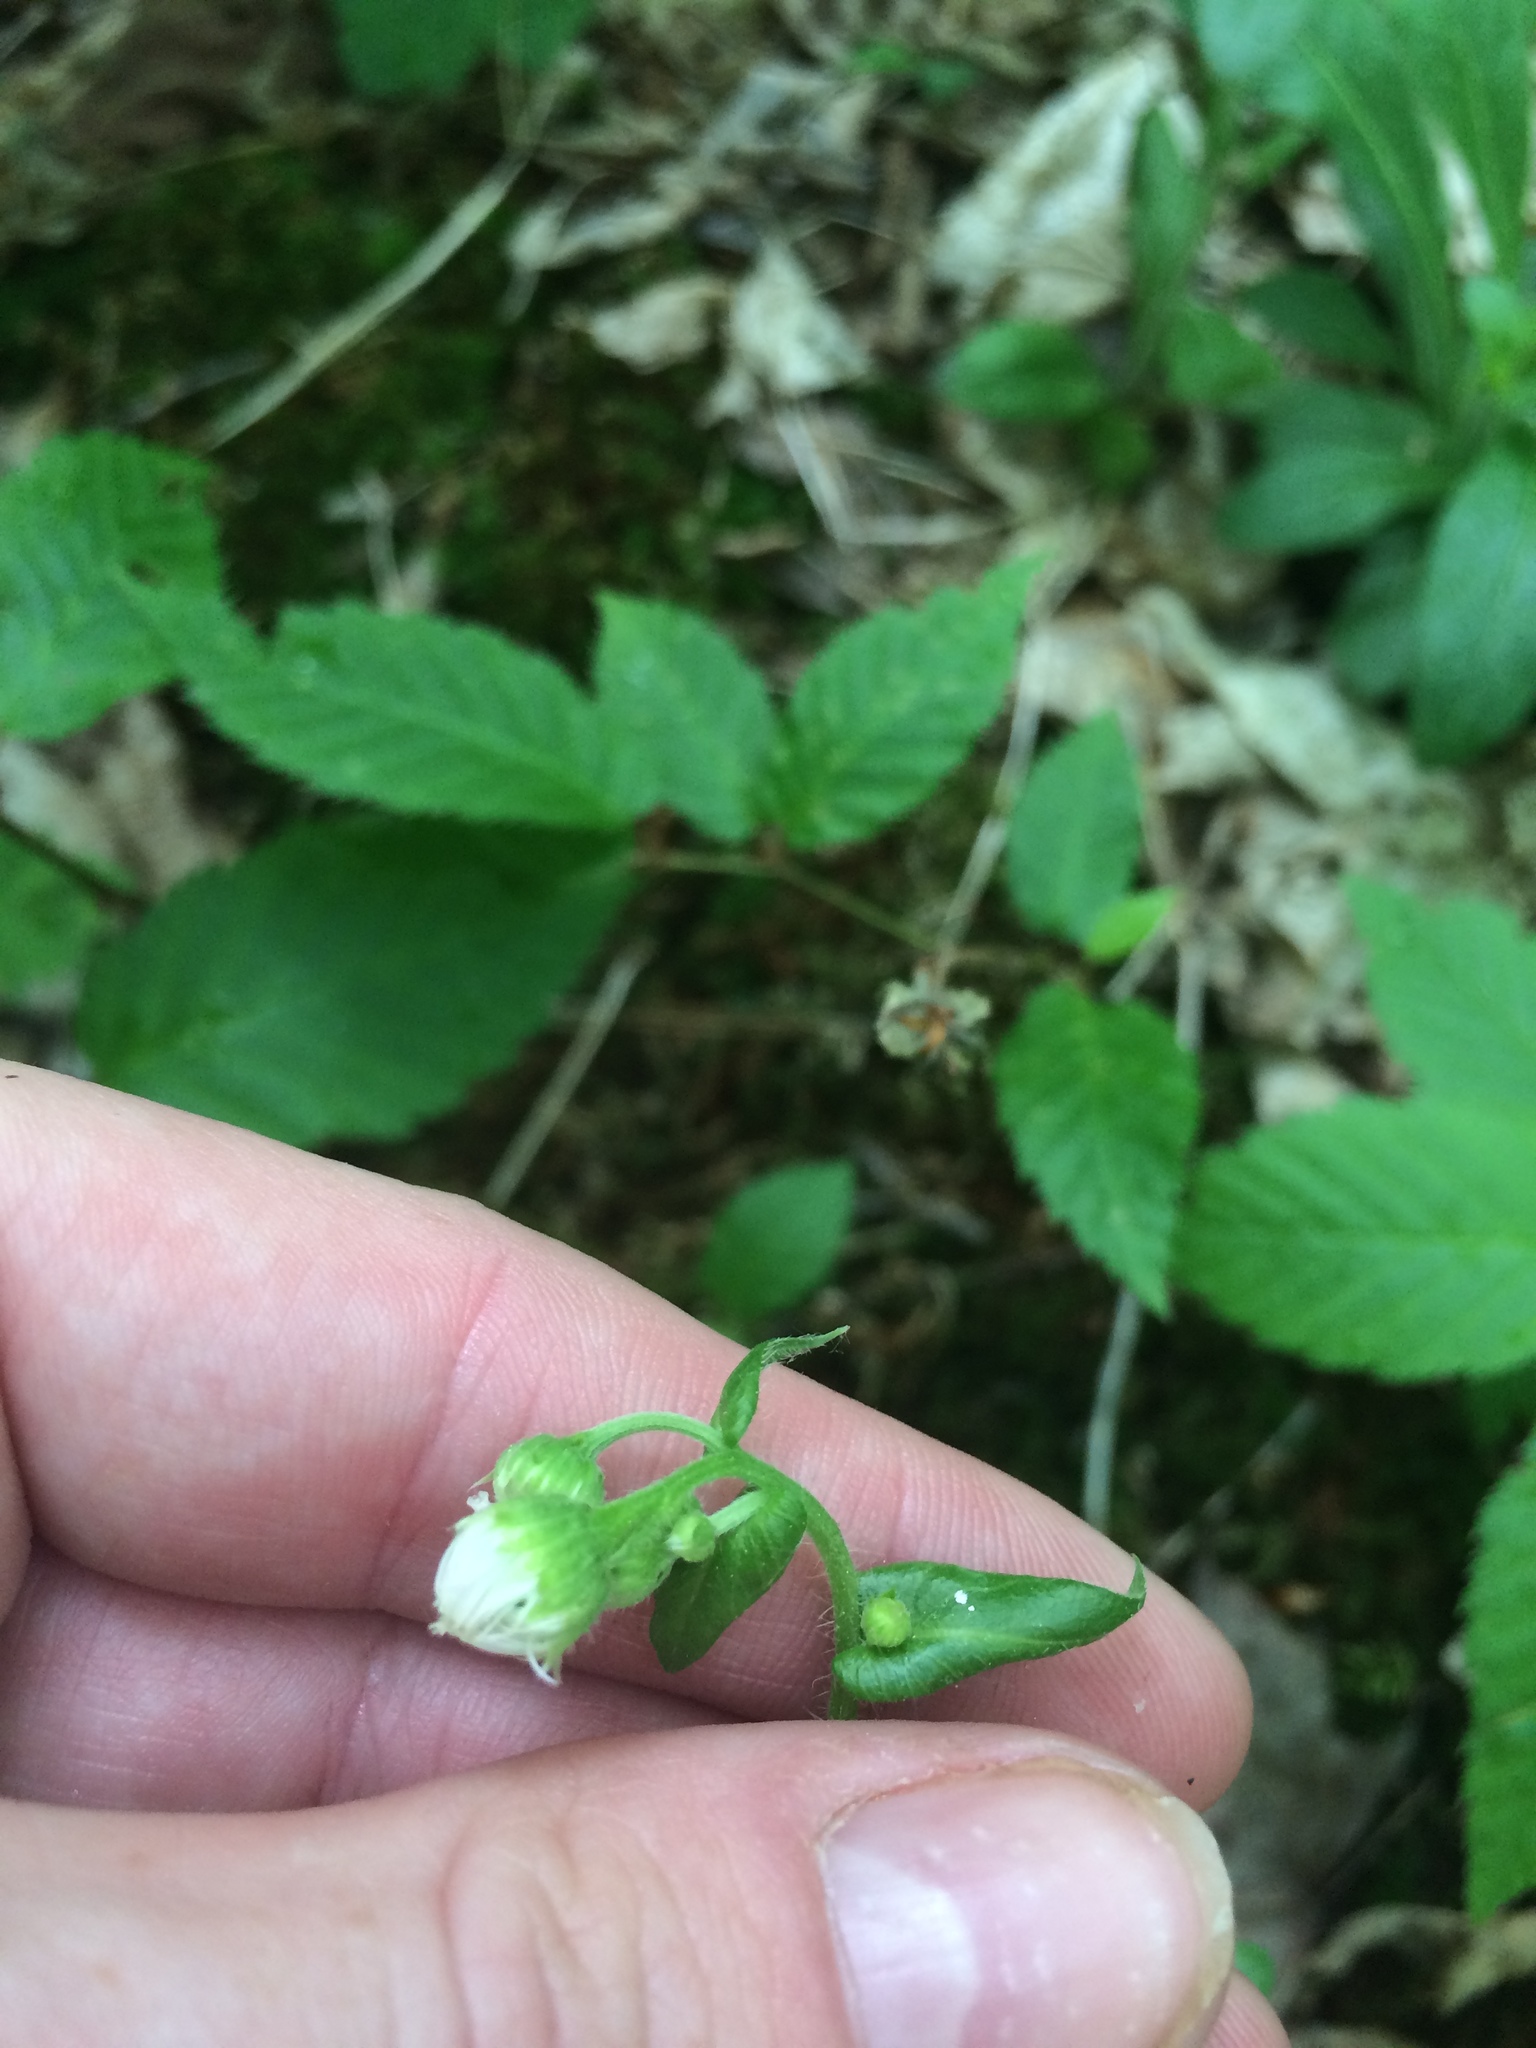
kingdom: Plantae
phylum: Tracheophyta
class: Magnoliopsida
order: Asterales
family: Asteraceae
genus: Erigeron
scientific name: Erigeron philadelphicus
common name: Robin's-plantain
